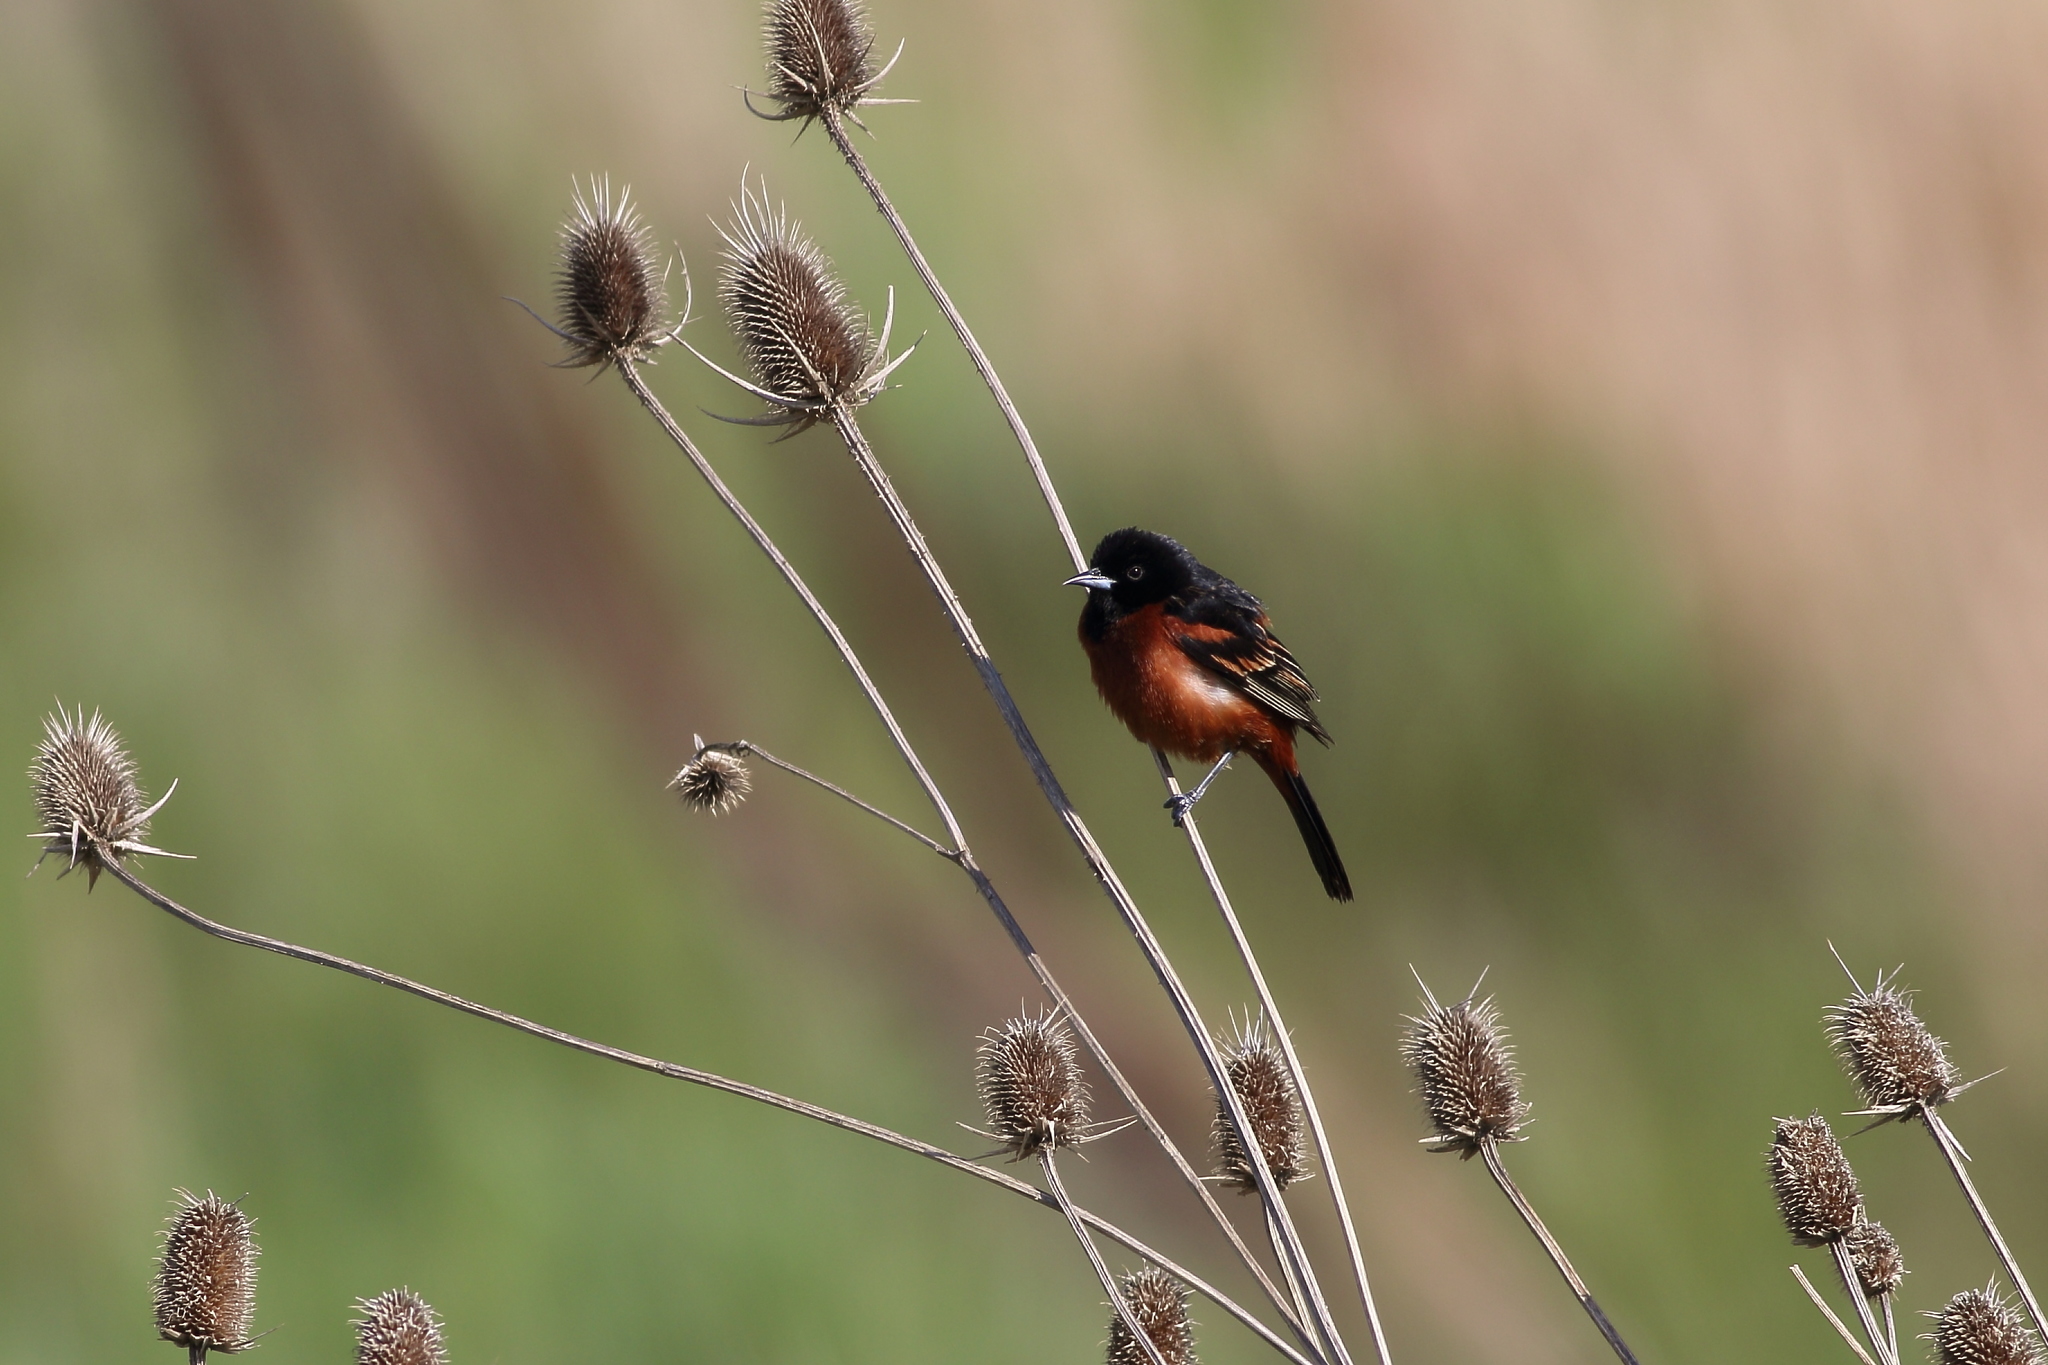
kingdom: Animalia
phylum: Chordata
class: Aves
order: Passeriformes
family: Icteridae
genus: Icterus
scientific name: Icterus spurius
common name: Orchard oriole
